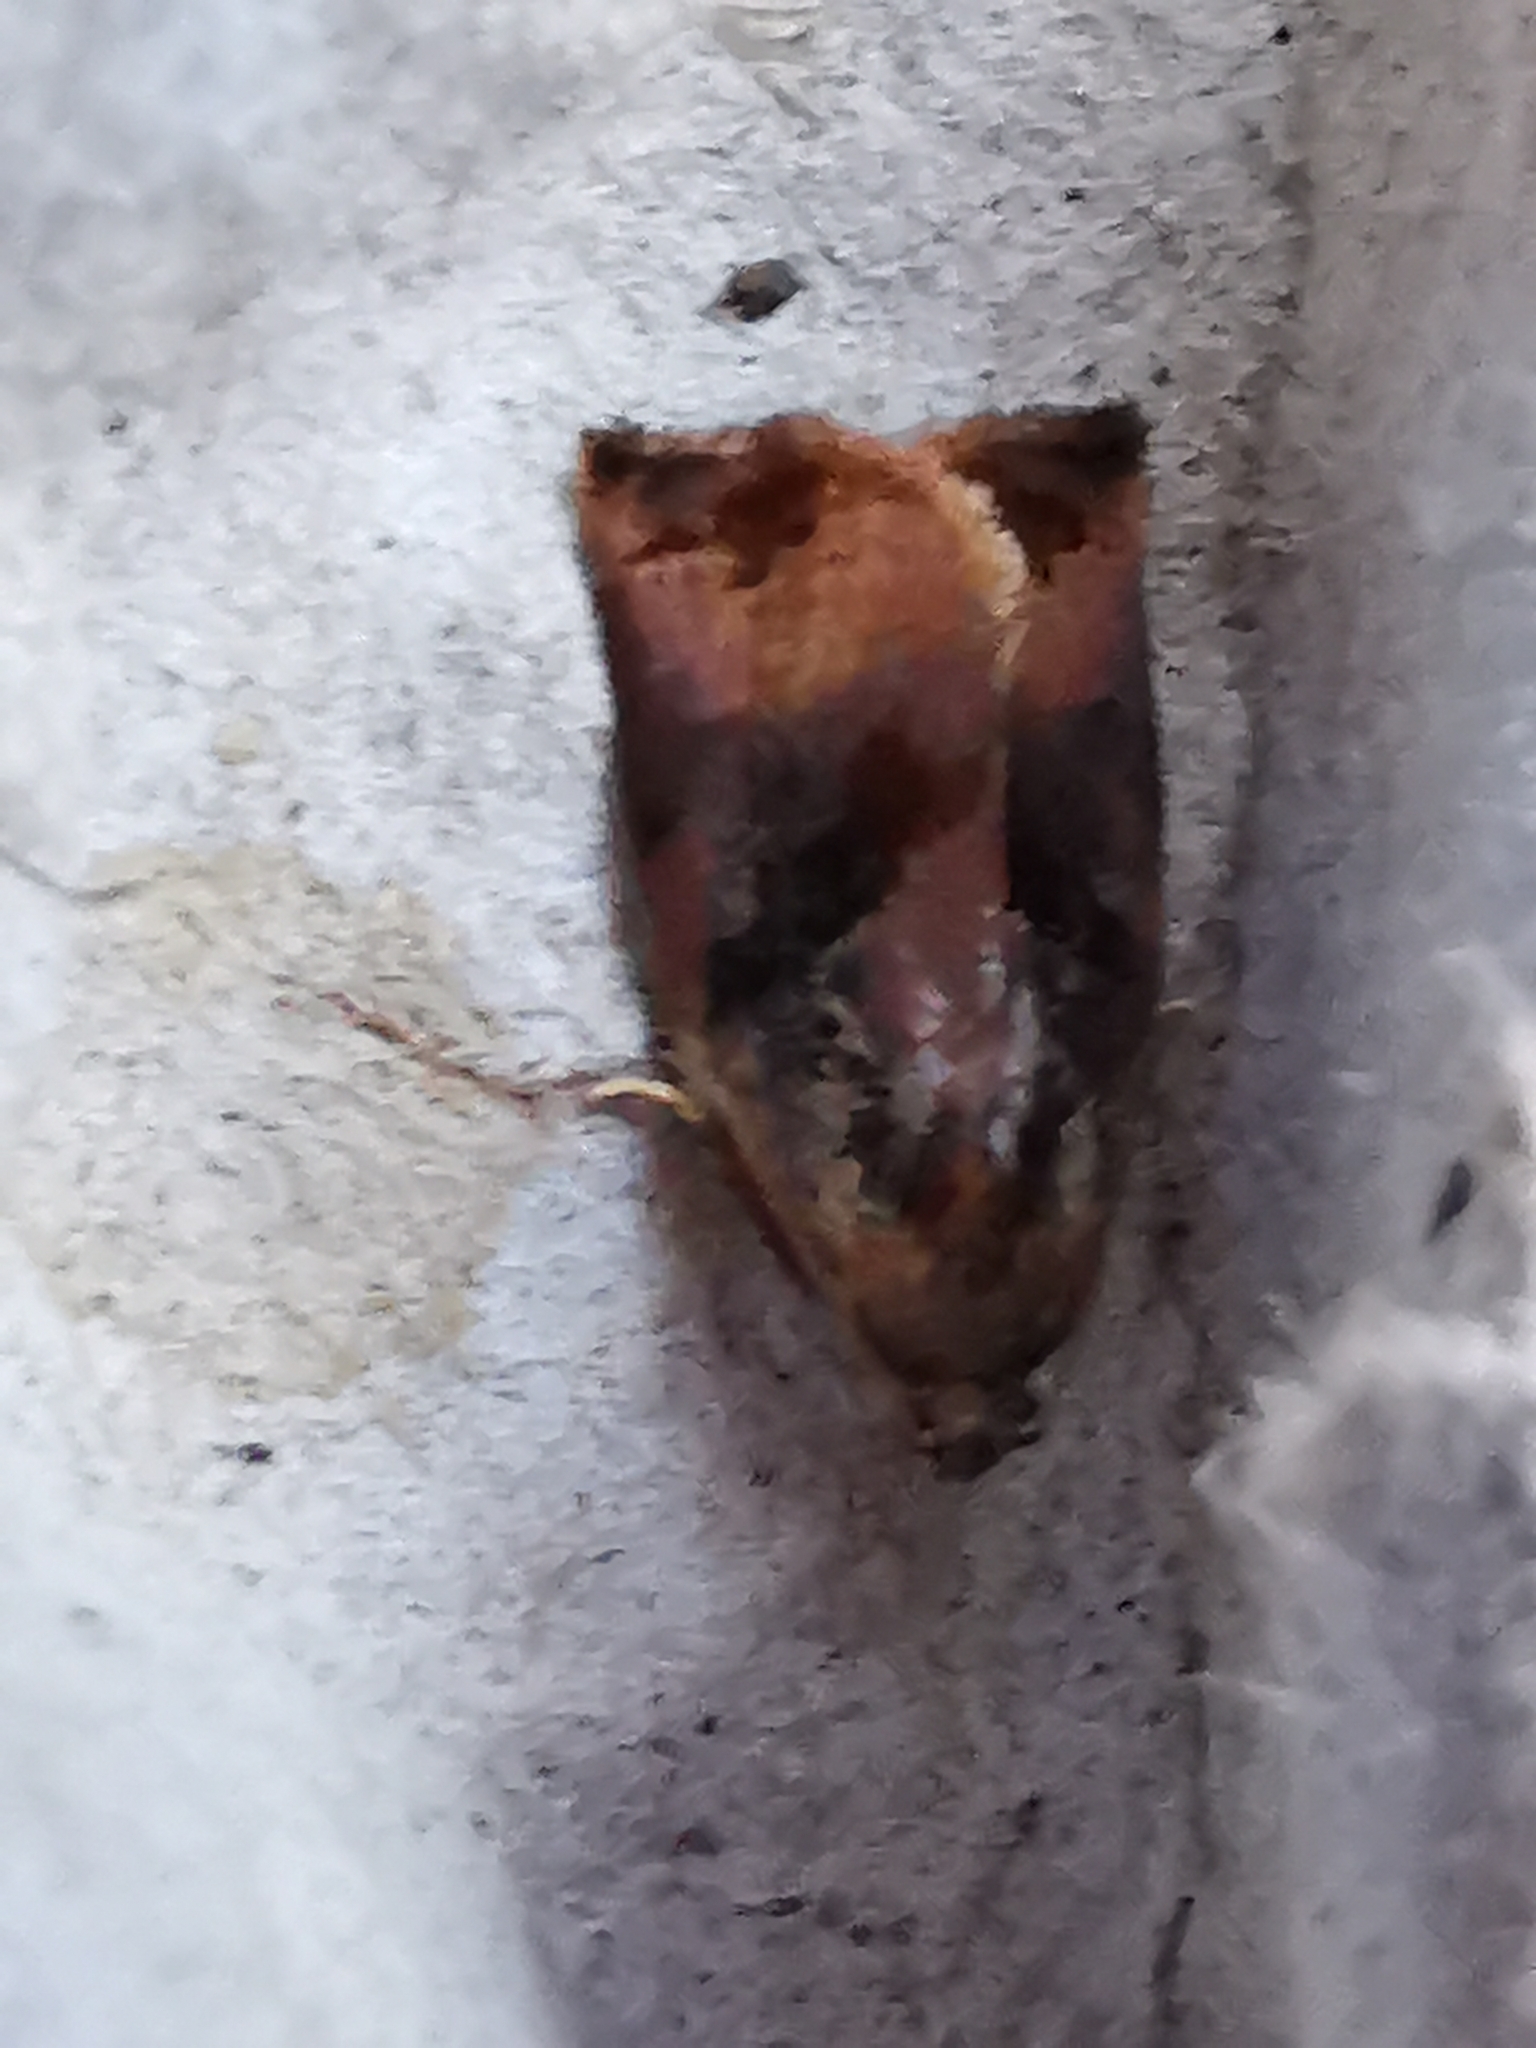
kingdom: Animalia
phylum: Arthropoda
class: Insecta
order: Lepidoptera
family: Tortricidae
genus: Archips
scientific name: Archips podana
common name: Large fruit-tree tortrix
